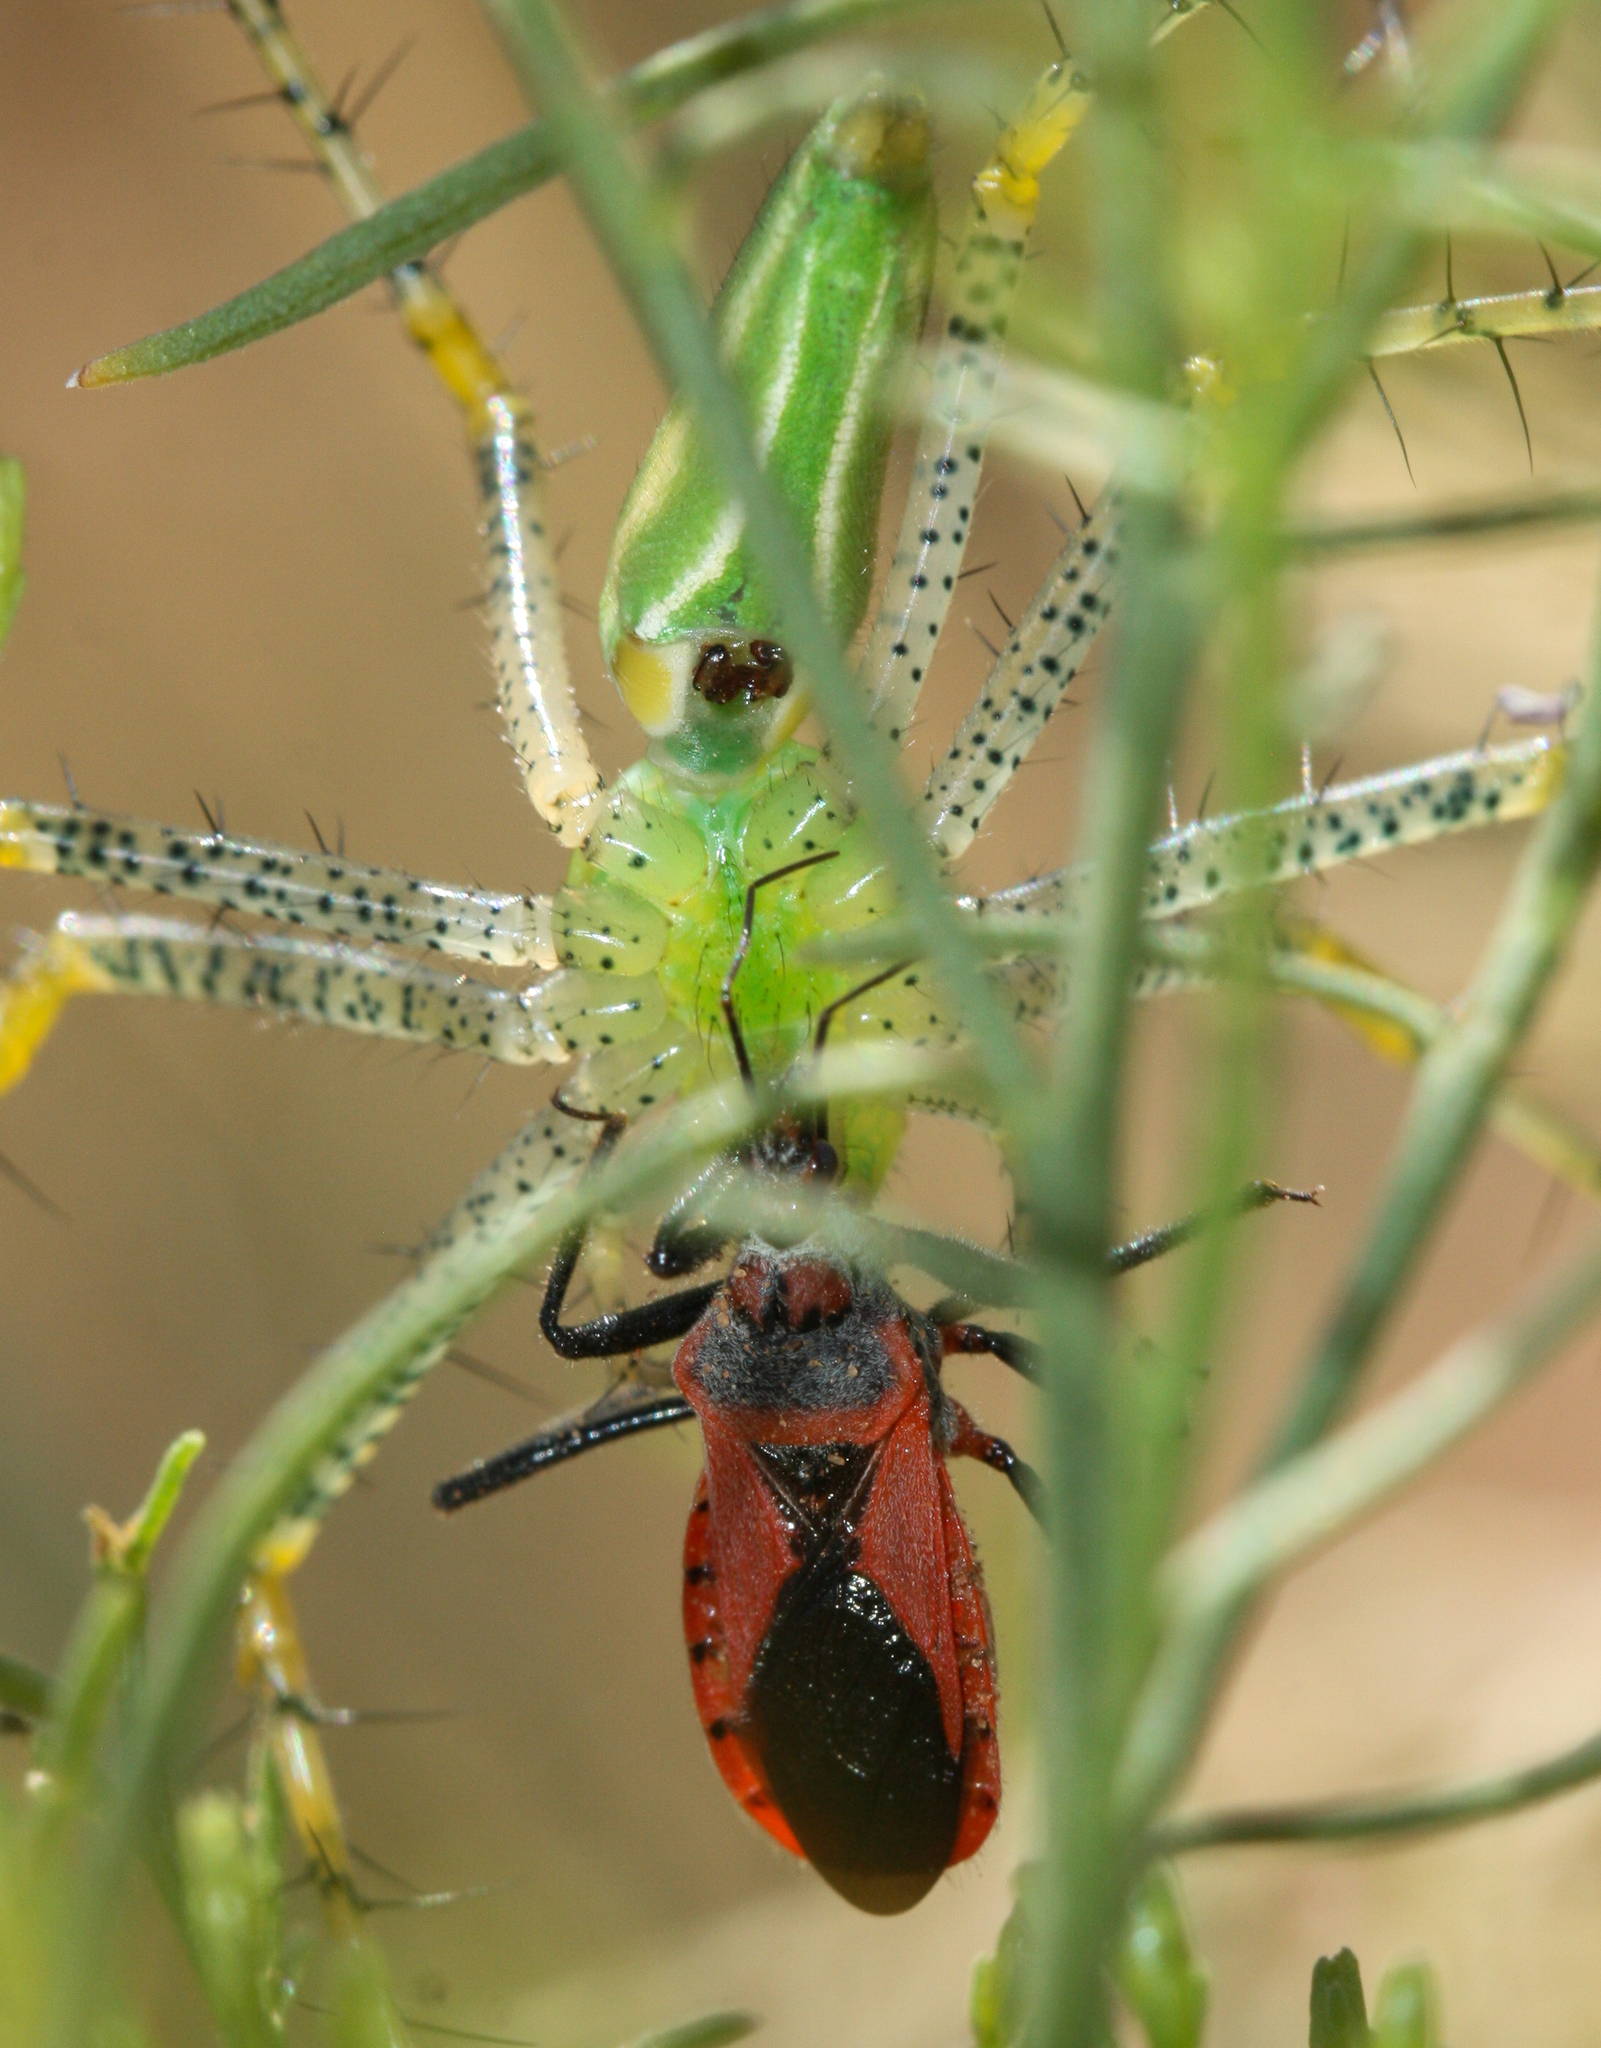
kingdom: Animalia
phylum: Arthropoda
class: Insecta
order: Hemiptera
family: Reduviidae
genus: Rhynocoris
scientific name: Rhynocoris ventralis
